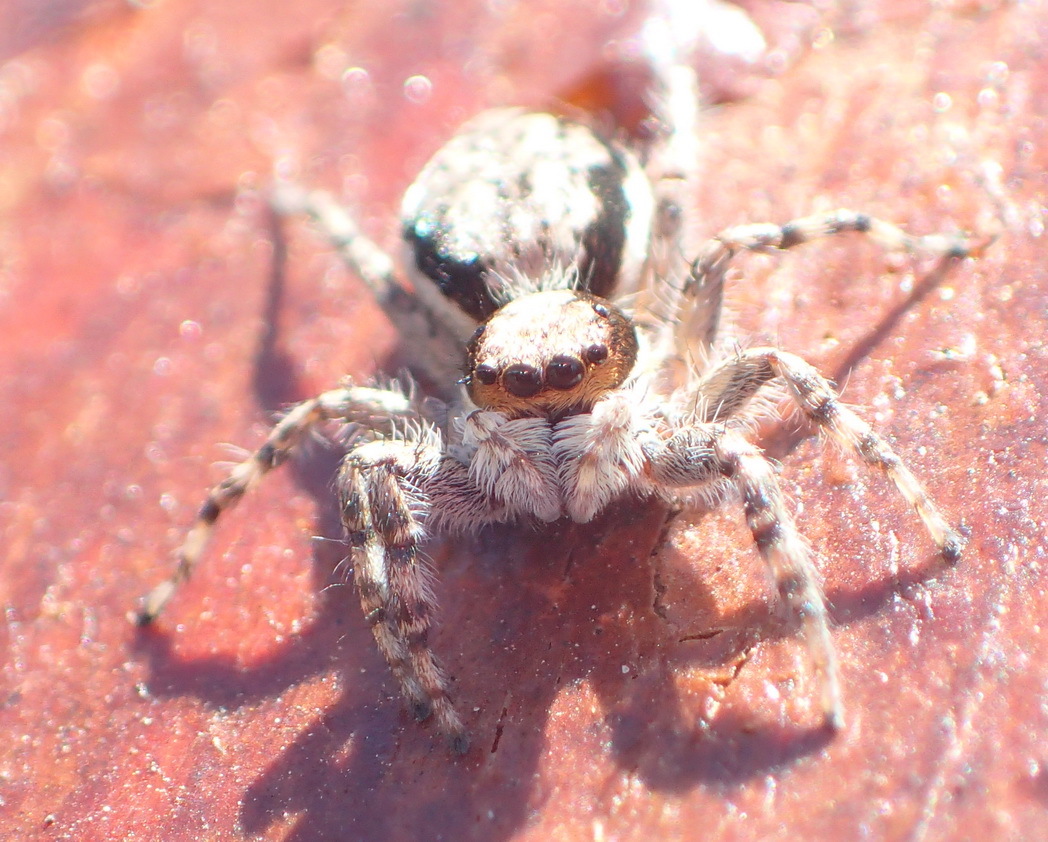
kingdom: Animalia
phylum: Arthropoda
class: Arachnida
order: Araneae
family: Salticidae
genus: Menemerus
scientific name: Menemerus bivittatus
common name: Gray wall jumper
